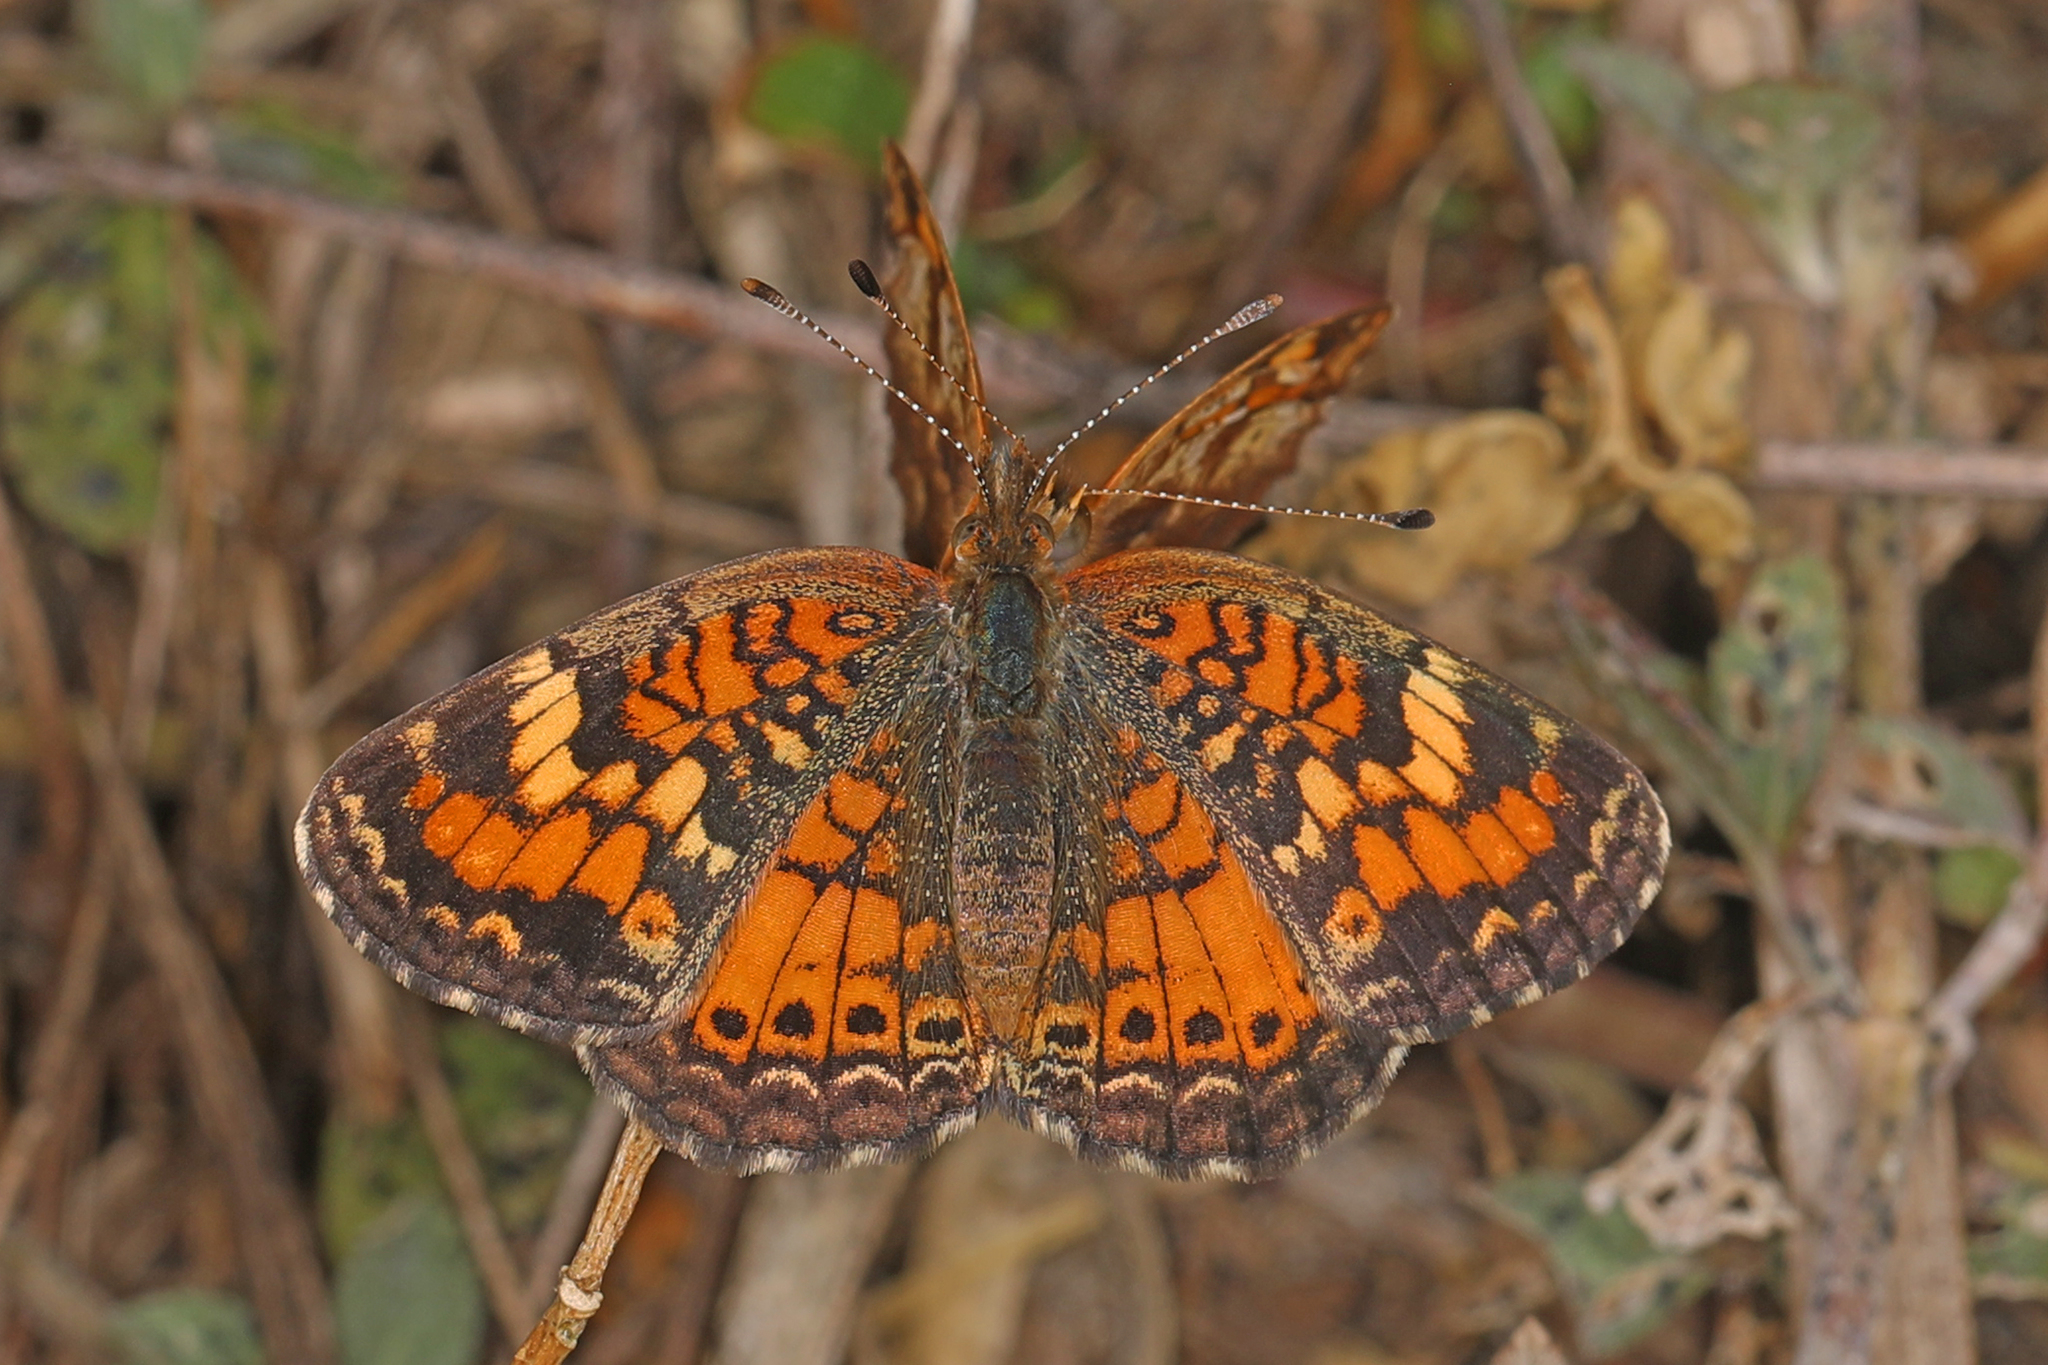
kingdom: Animalia
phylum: Arthropoda
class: Insecta
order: Lepidoptera
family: Nymphalidae
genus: Phyciodes
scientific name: Phyciodes phaon
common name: Phaon crescent
